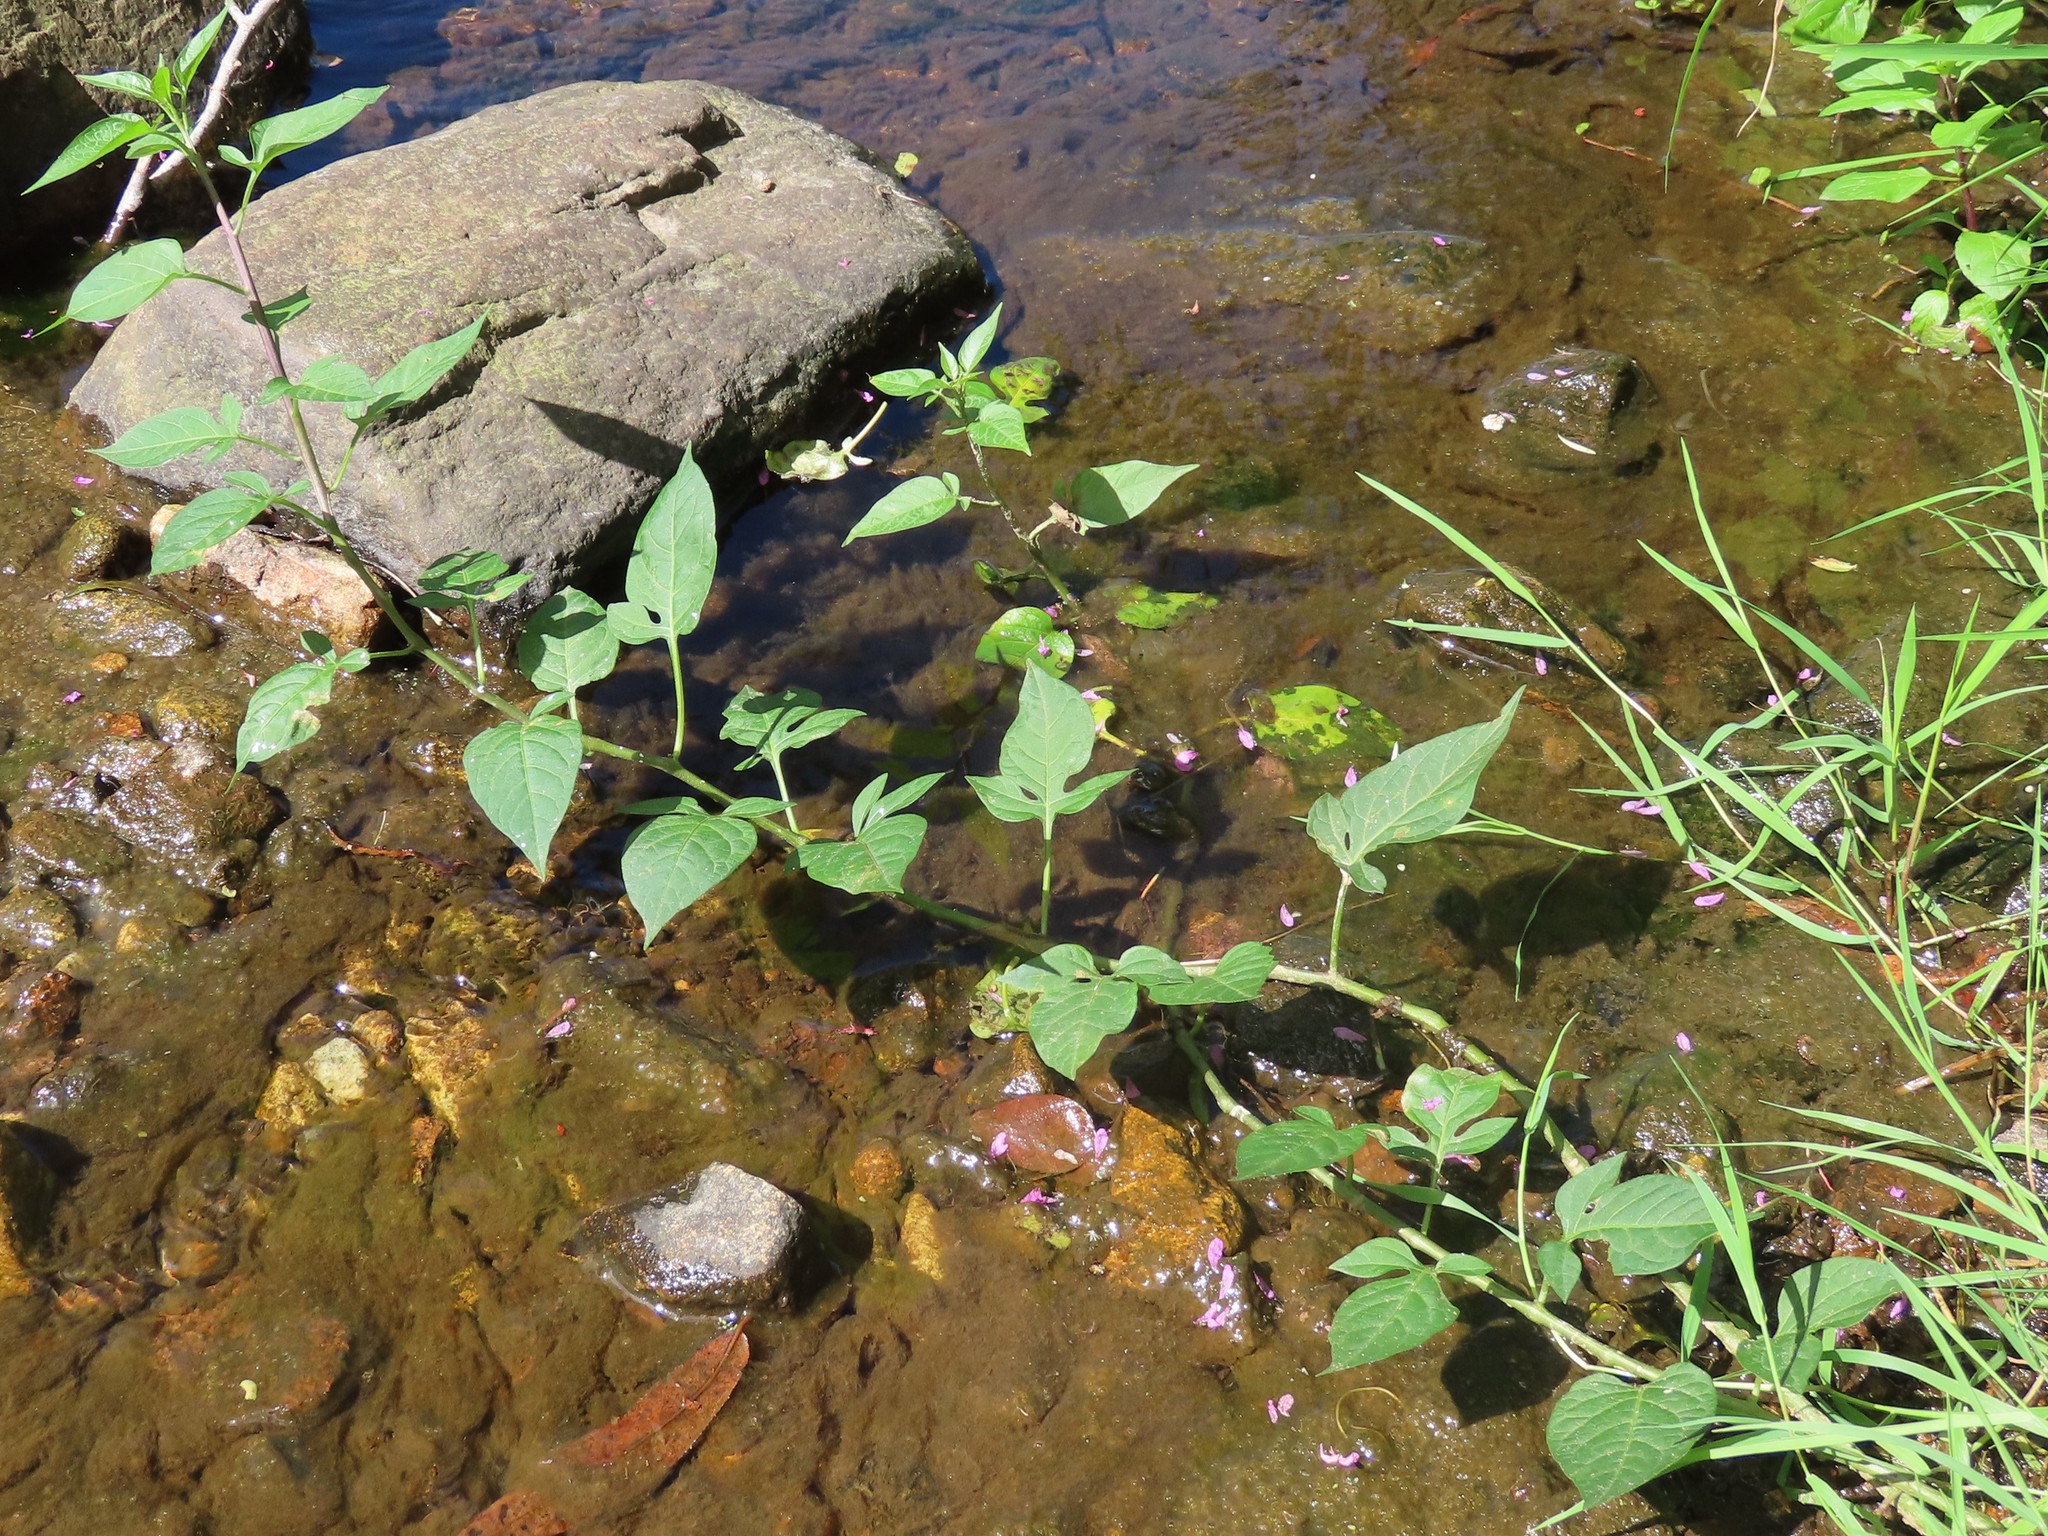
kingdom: Plantae
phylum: Tracheophyta
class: Magnoliopsida
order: Solanales
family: Solanaceae
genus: Solanum
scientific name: Solanum dulcamara
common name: Climbing nightshade
